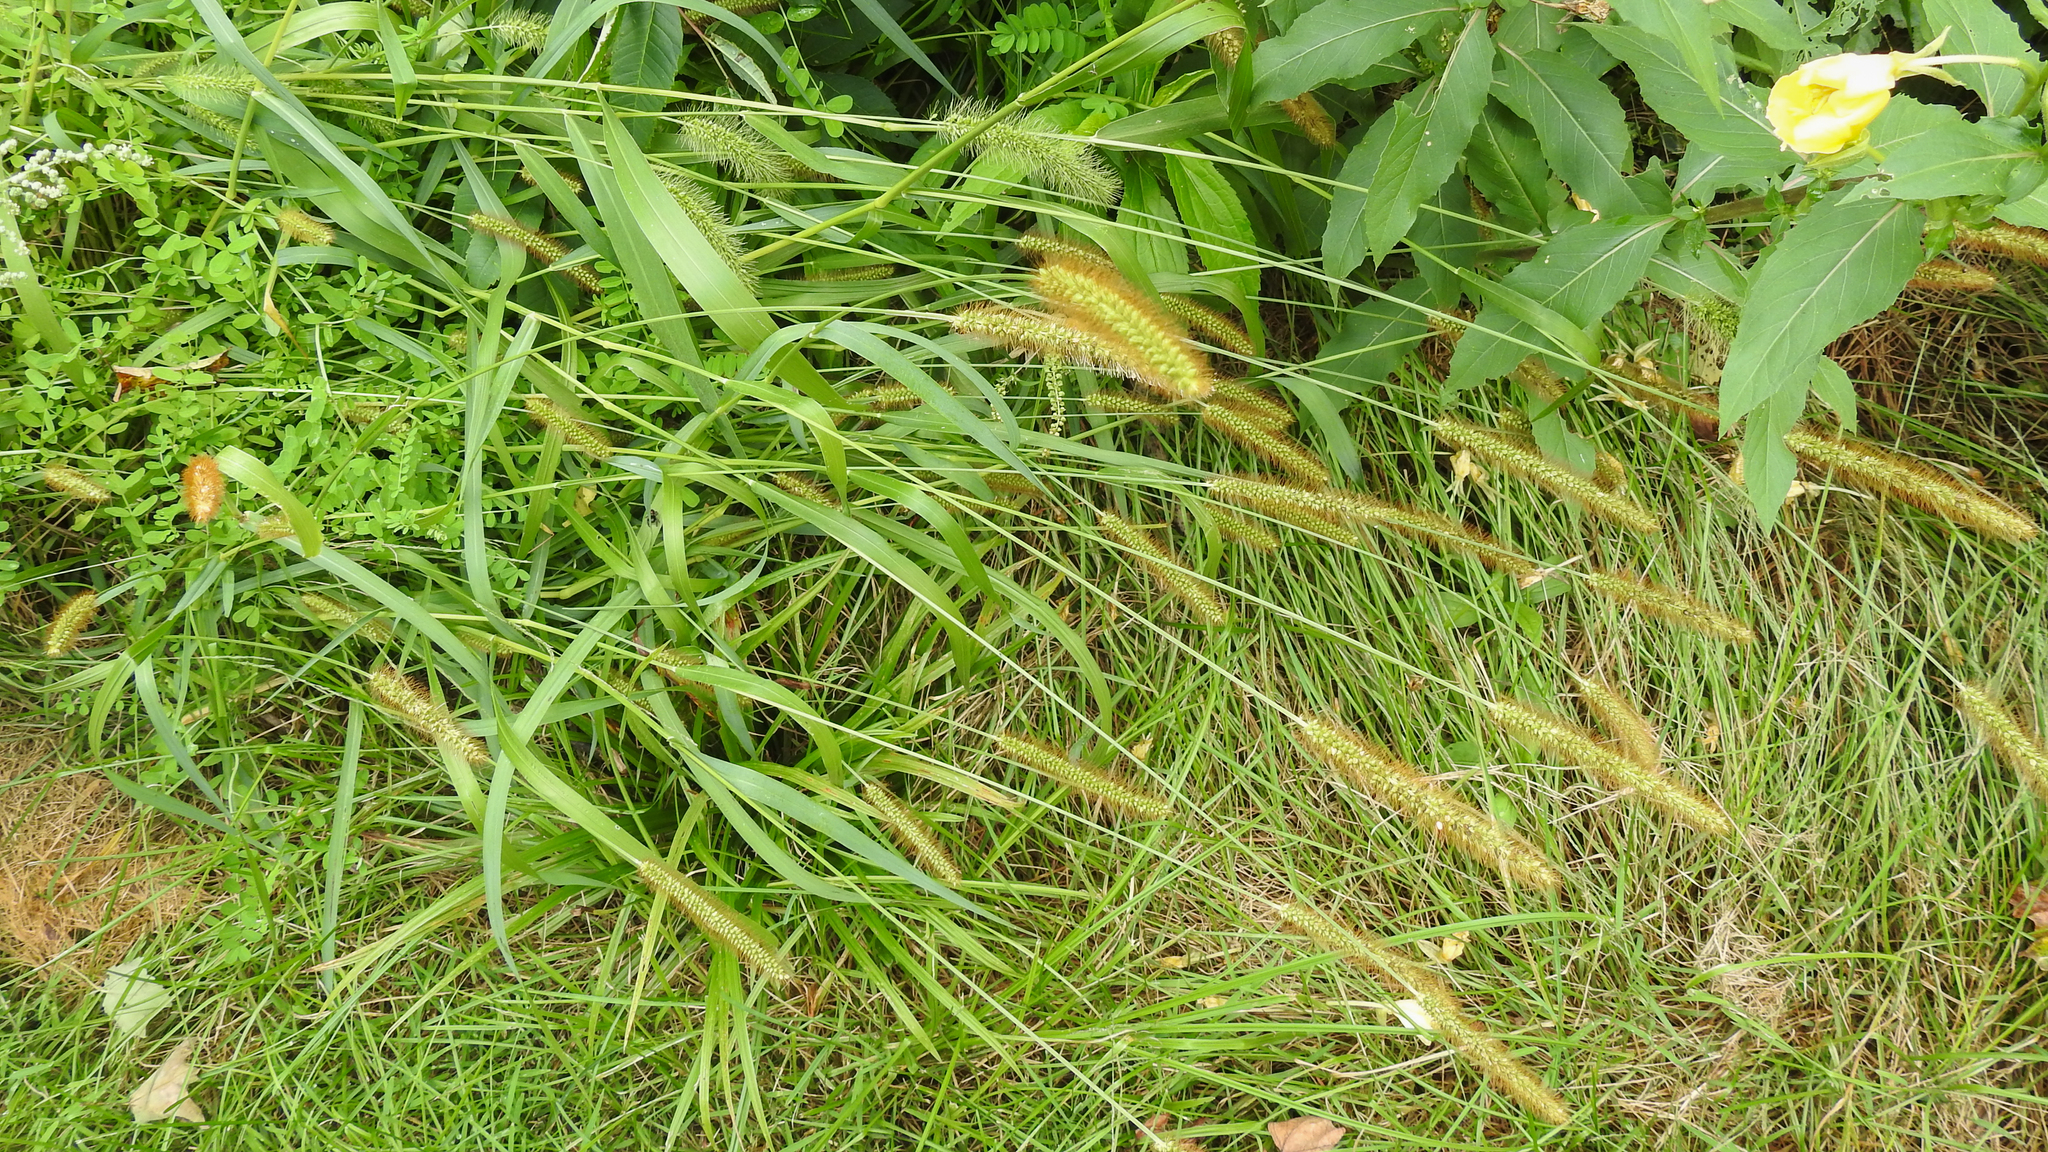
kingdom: Plantae
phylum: Tracheophyta
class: Liliopsida
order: Poales
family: Poaceae
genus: Setaria
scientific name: Setaria pumila
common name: Yellow bristle-grass
